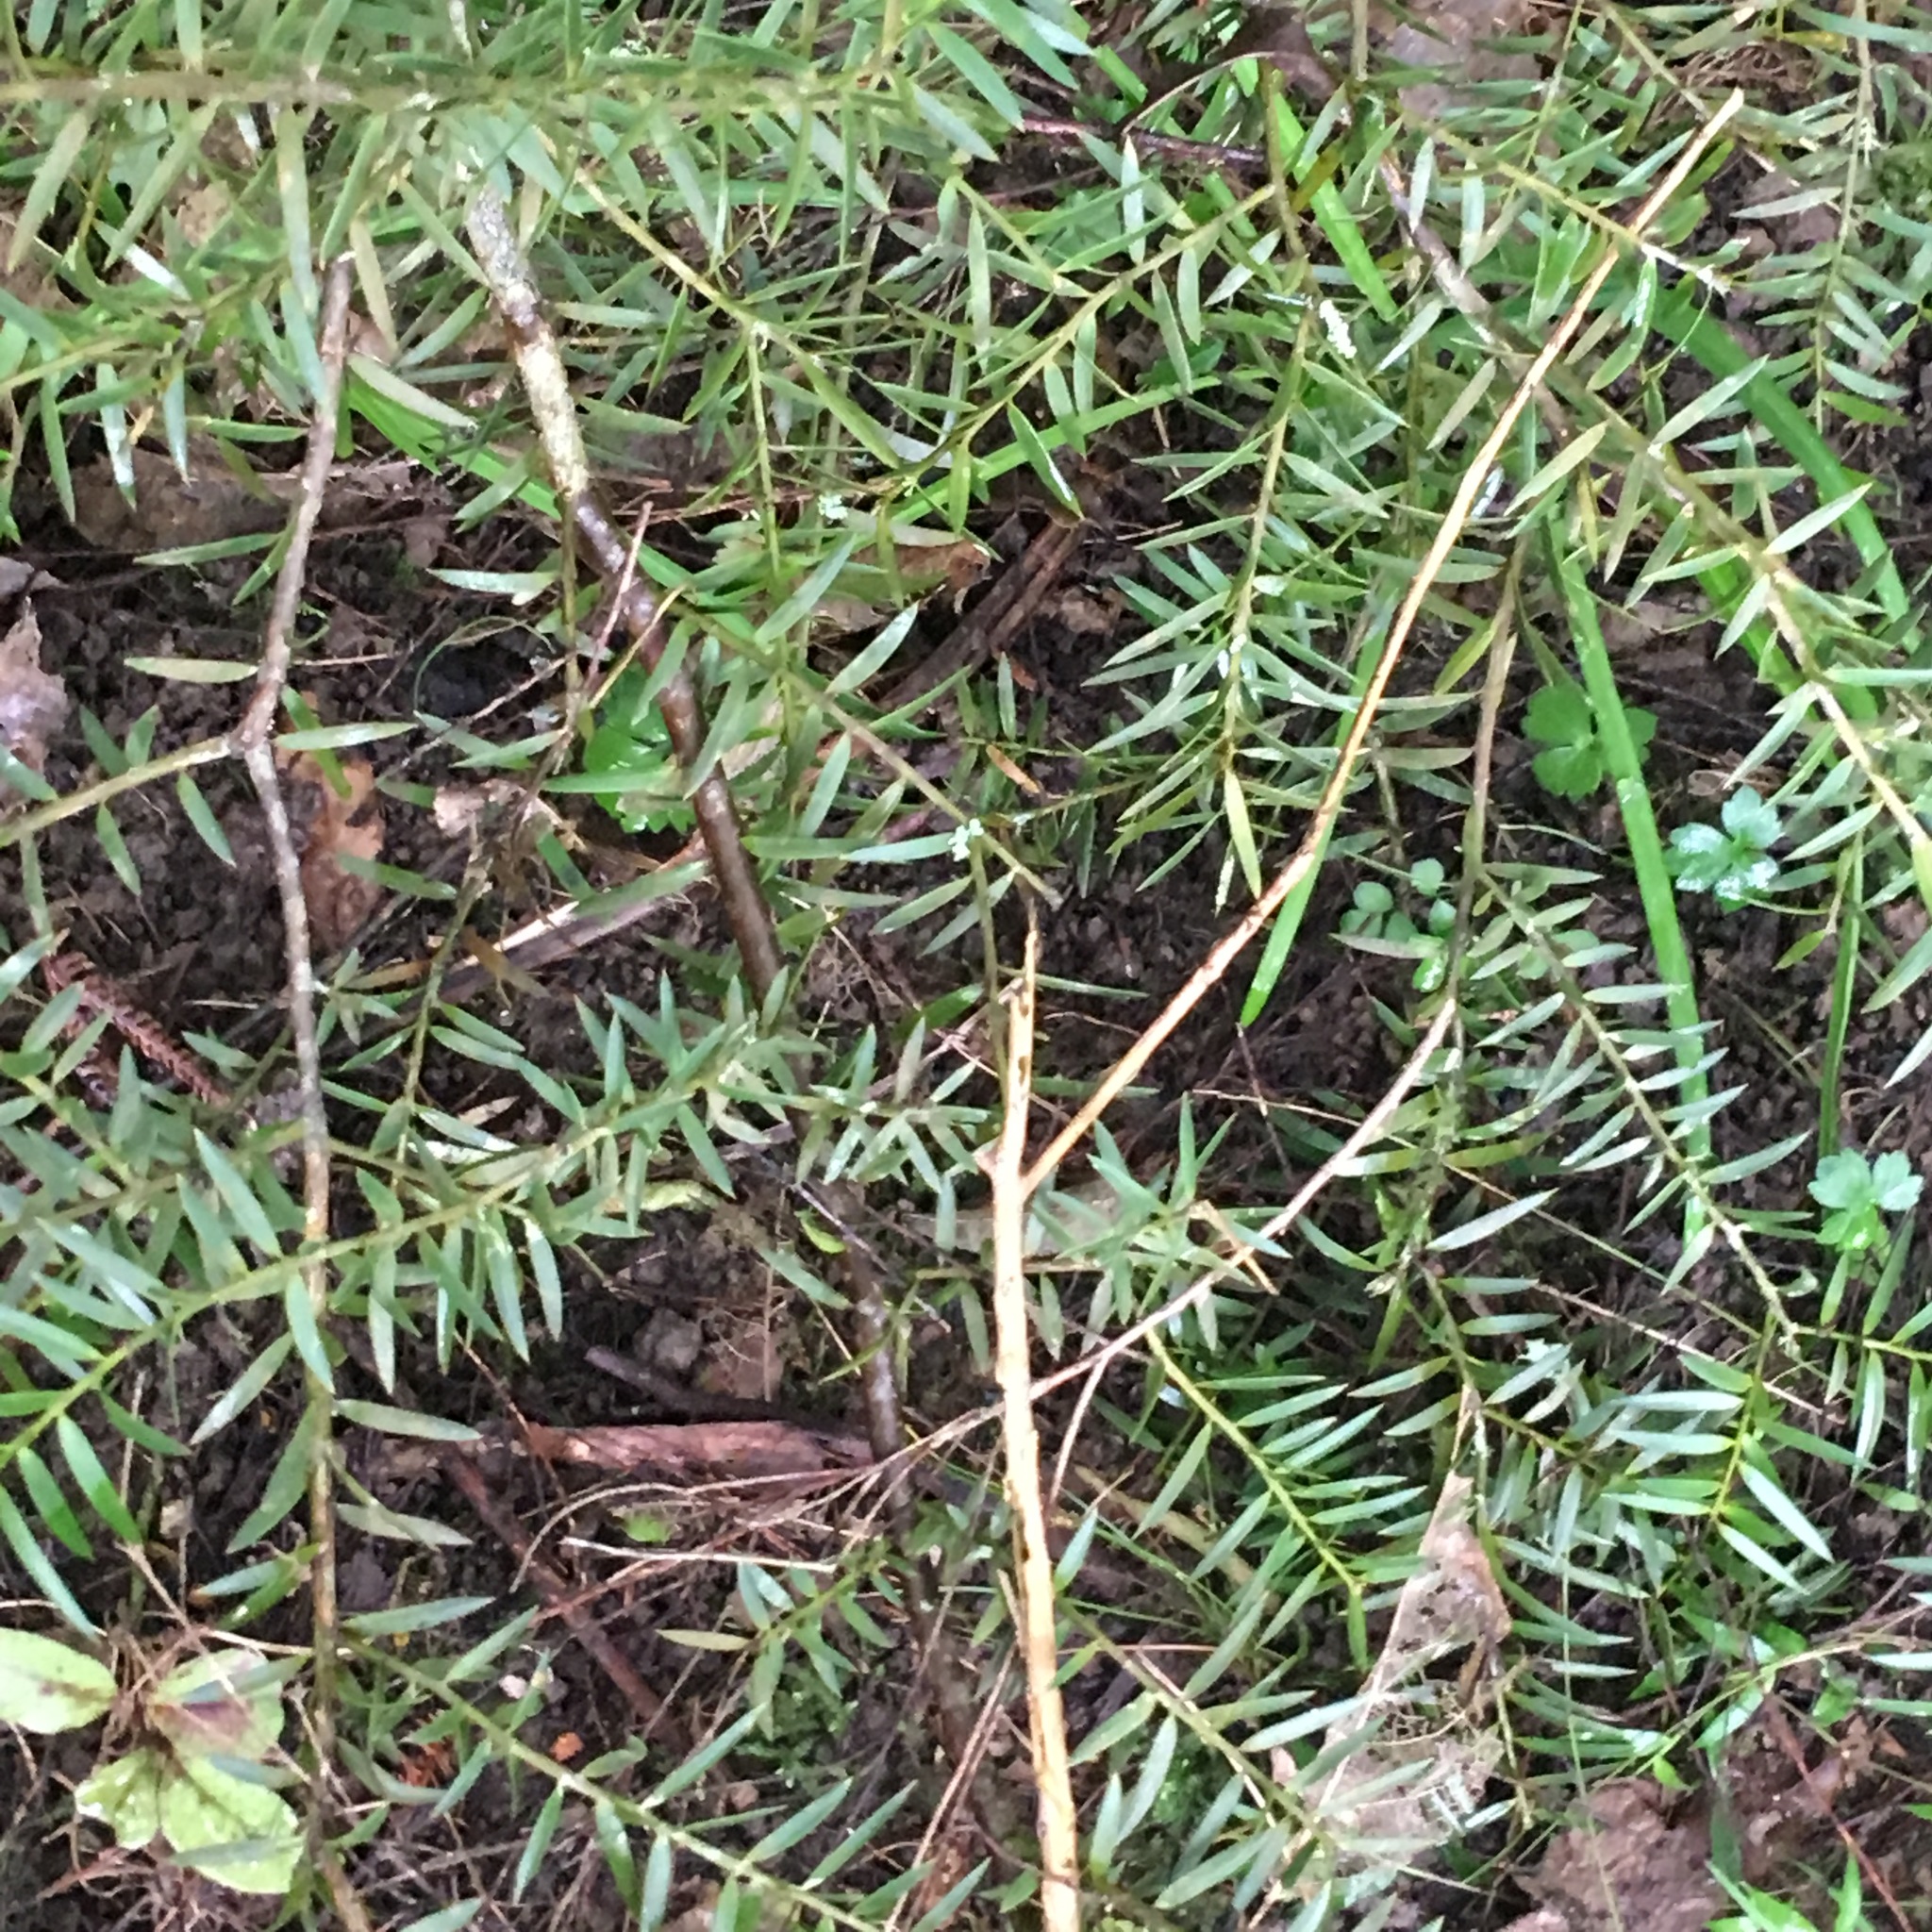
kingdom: Plantae
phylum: Tracheophyta
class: Pinopsida
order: Pinales
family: Podocarpaceae
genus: Podocarpus
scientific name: Podocarpus totara
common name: Totara
